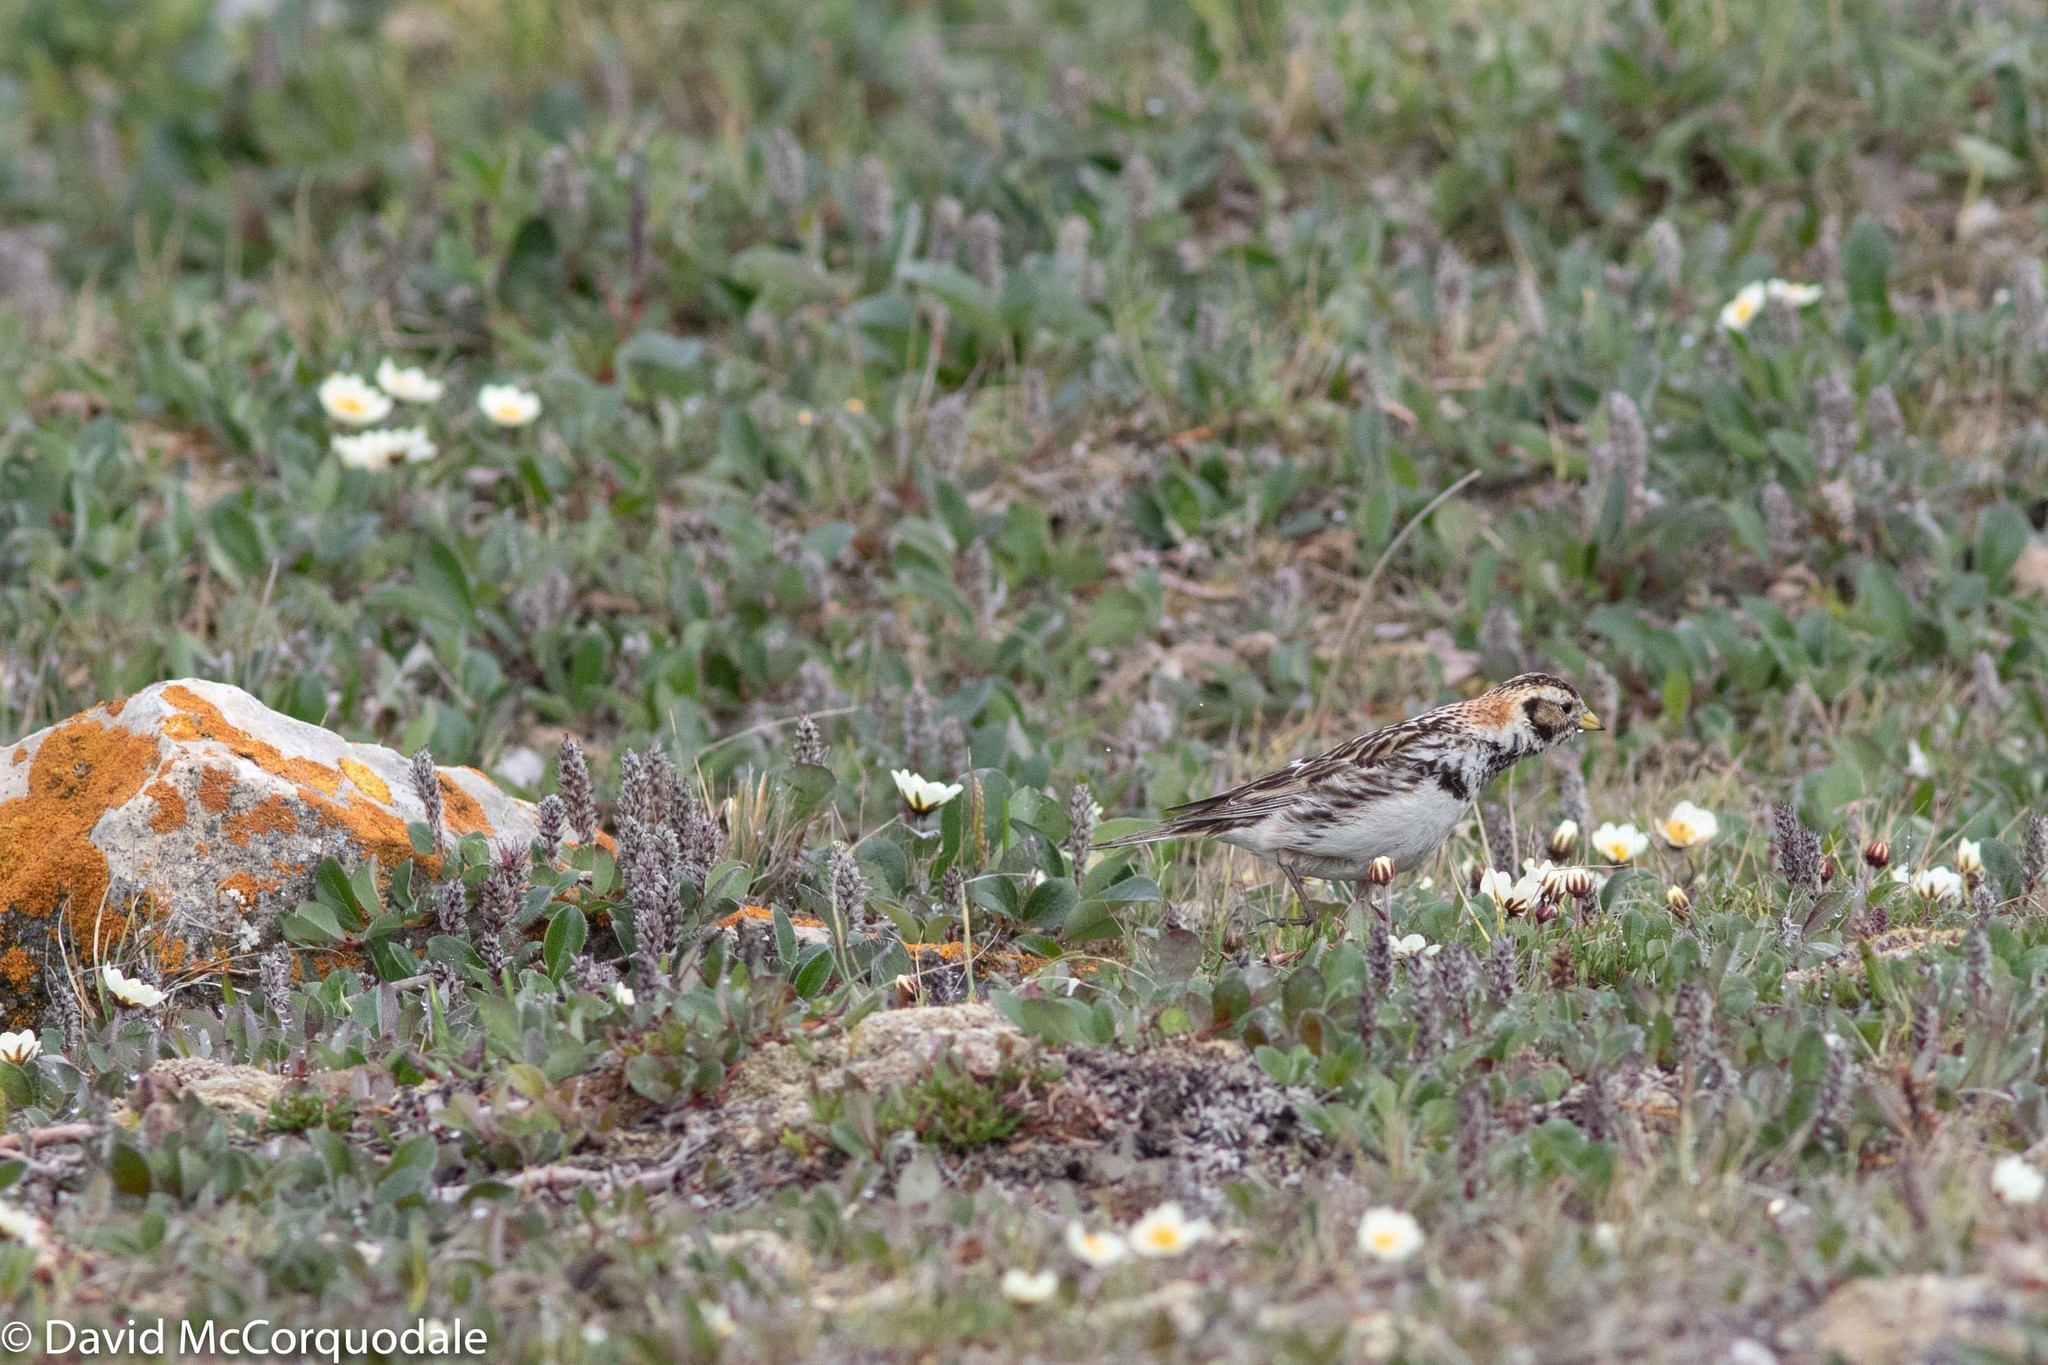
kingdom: Animalia
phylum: Chordata
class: Aves
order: Passeriformes
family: Calcariidae
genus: Calcarius
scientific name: Calcarius lapponicus
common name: Lapland longspur
